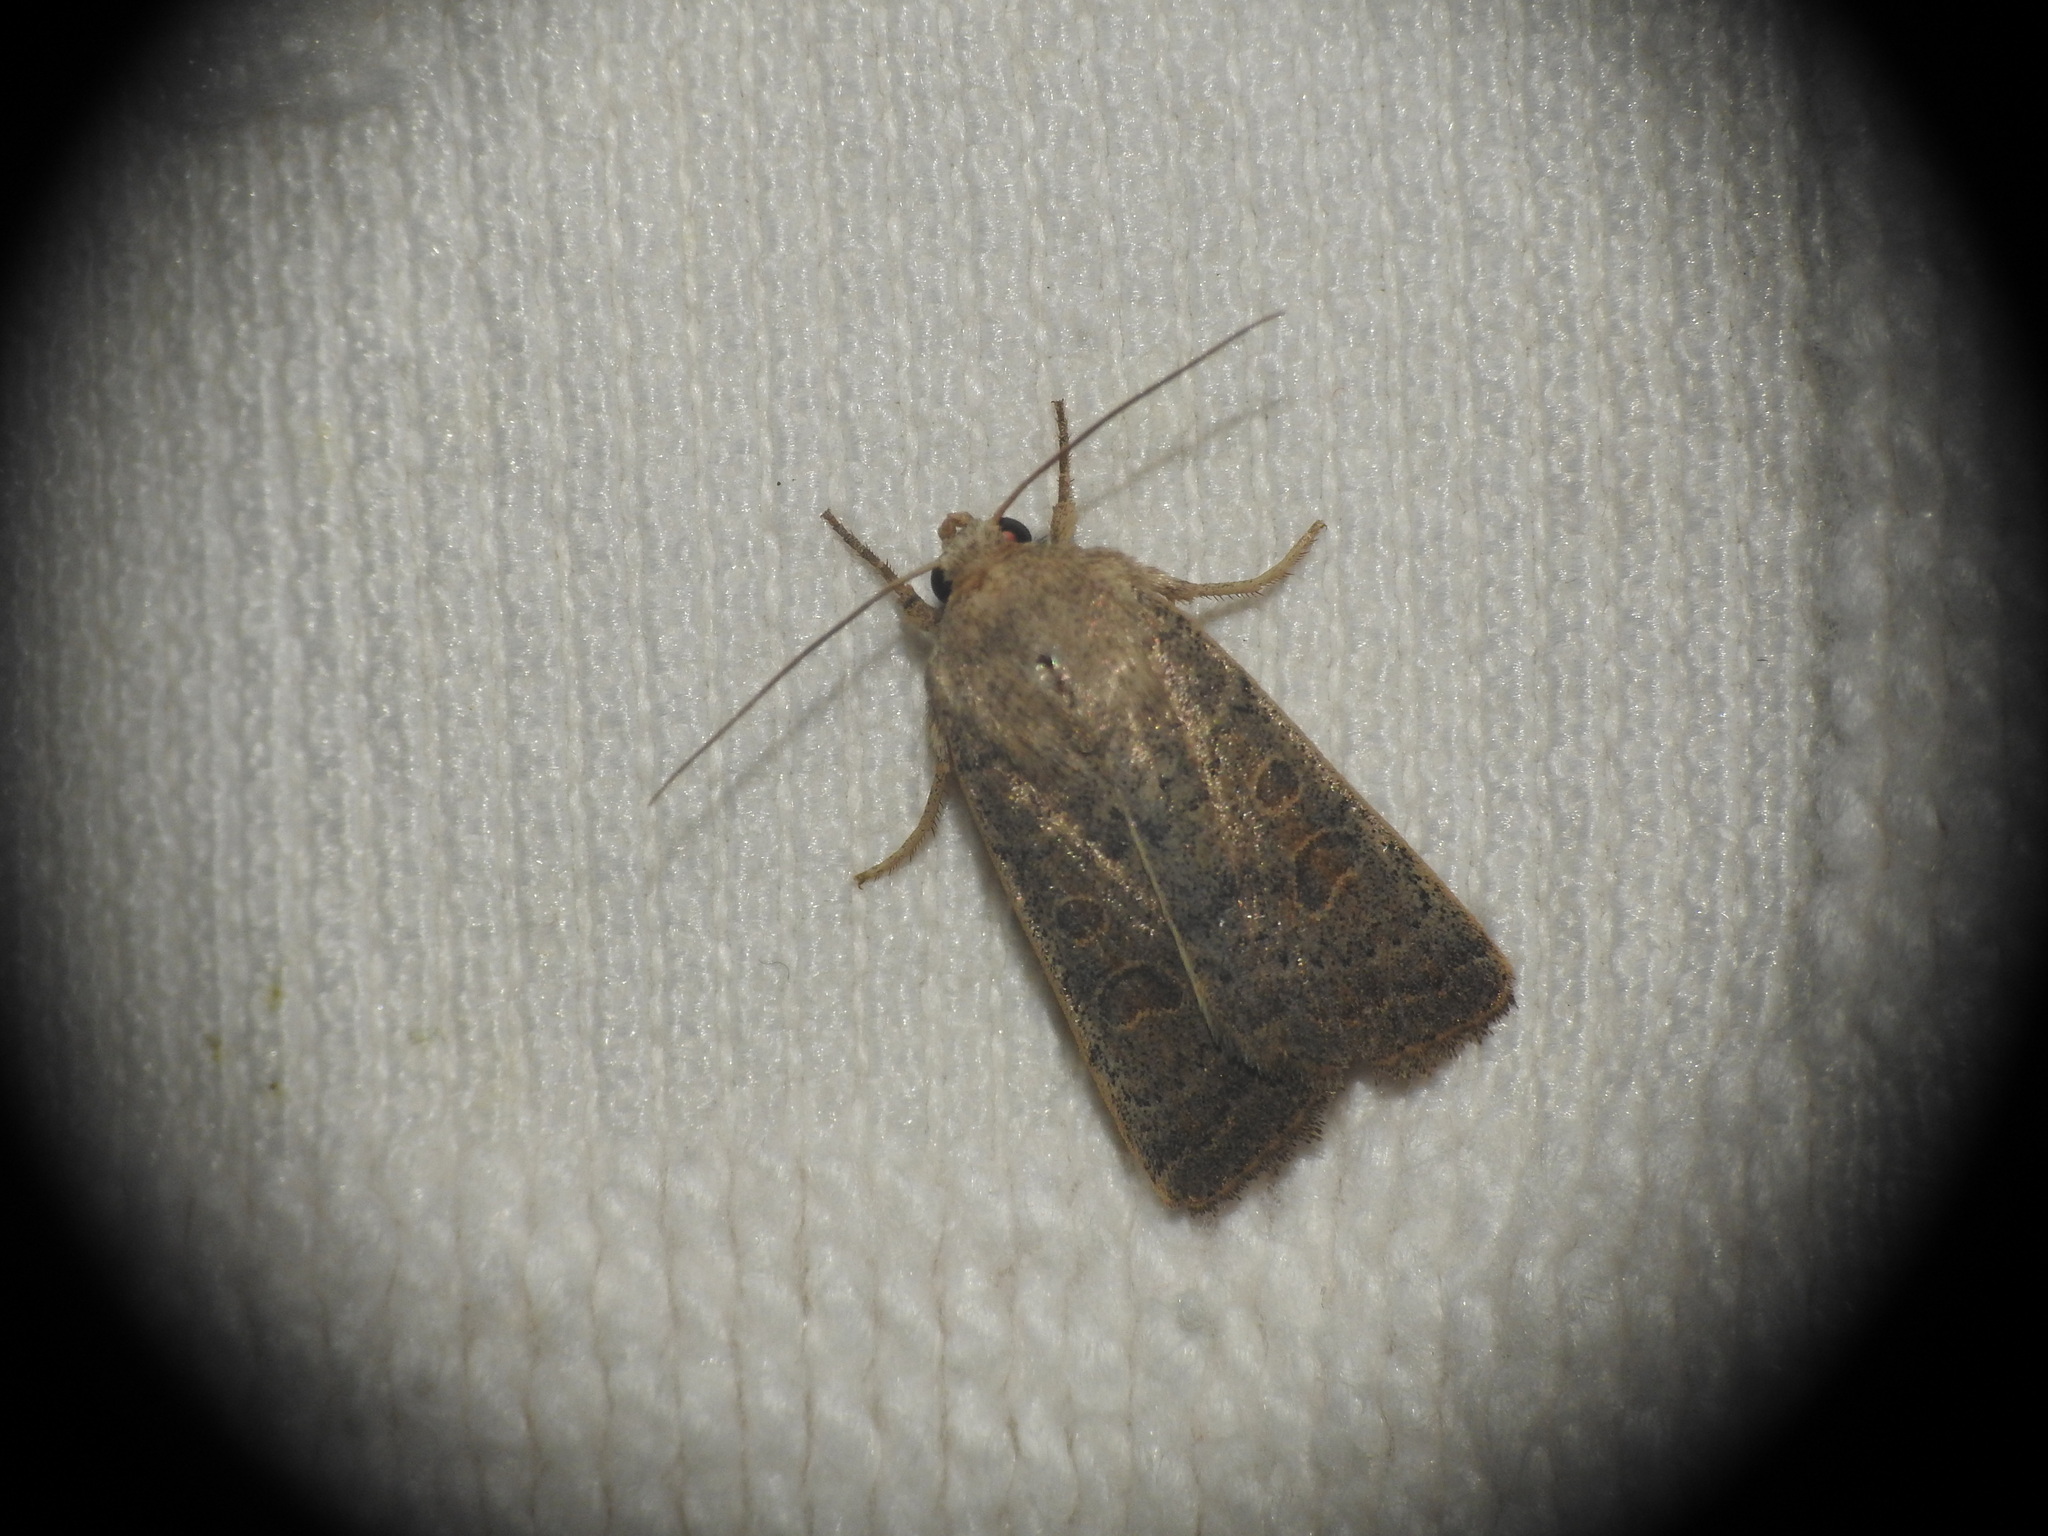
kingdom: Animalia
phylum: Arthropoda
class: Insecta
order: Lepidoptera
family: Noctuidae
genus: Hoplodrina
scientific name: Hoplodrina ambigua
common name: Vine's rustic
